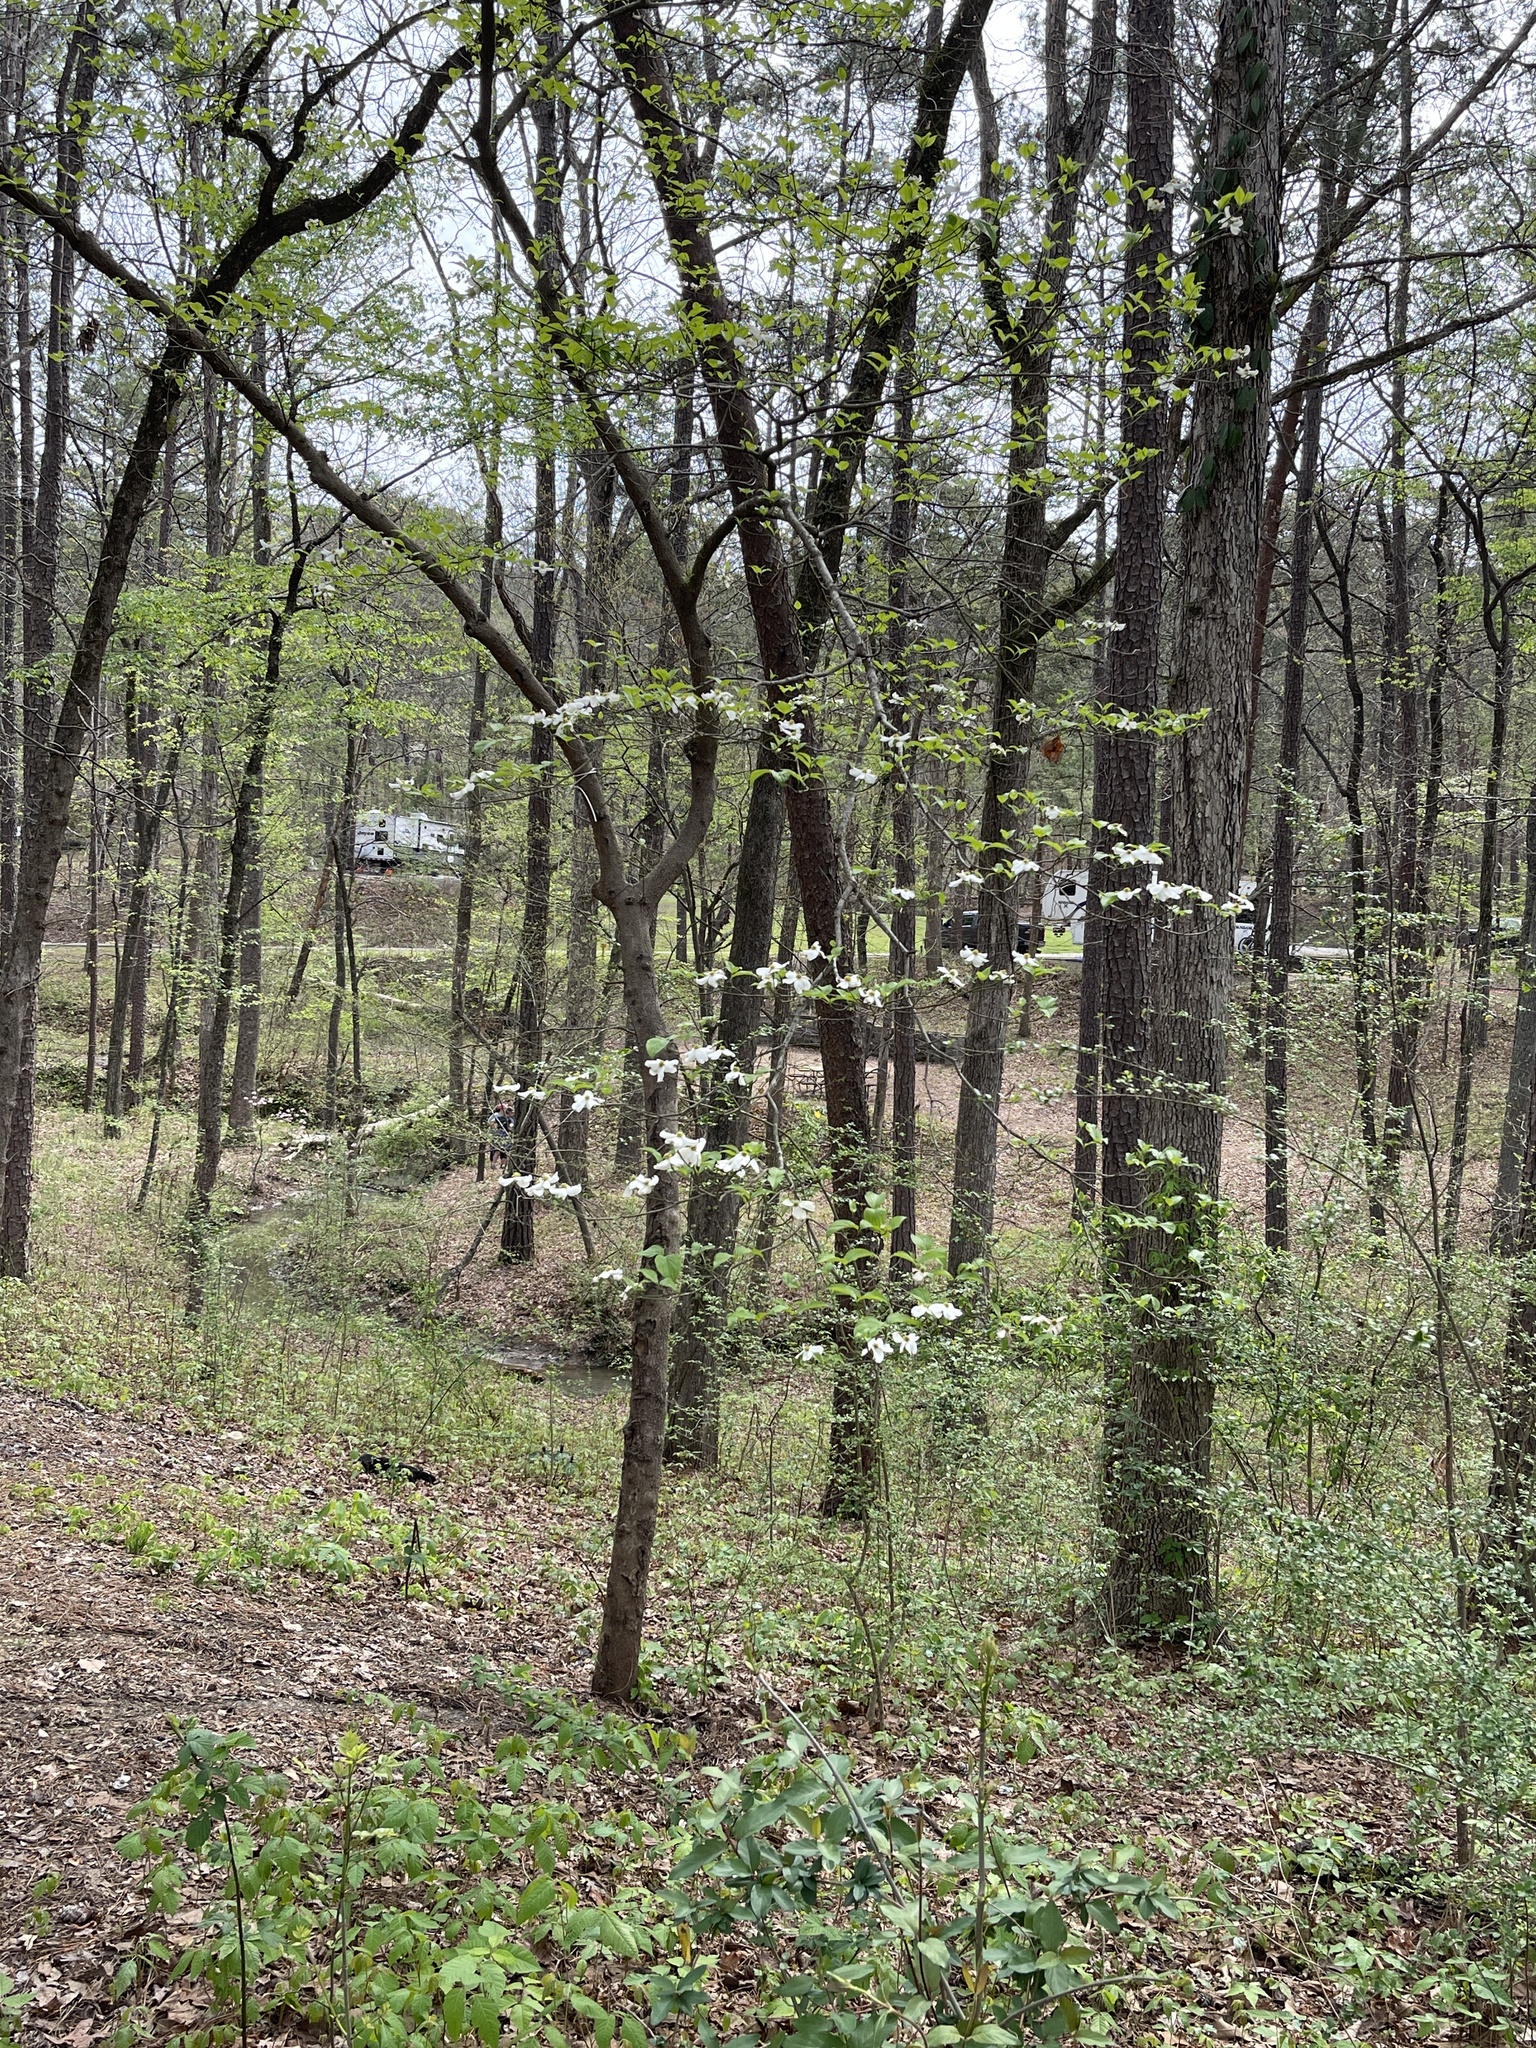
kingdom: Plantae
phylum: Tracheophyta
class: Magnoliopsida
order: Cornales
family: Cornaceae
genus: Cornus
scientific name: Cornus florida
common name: Flowering dogwood
